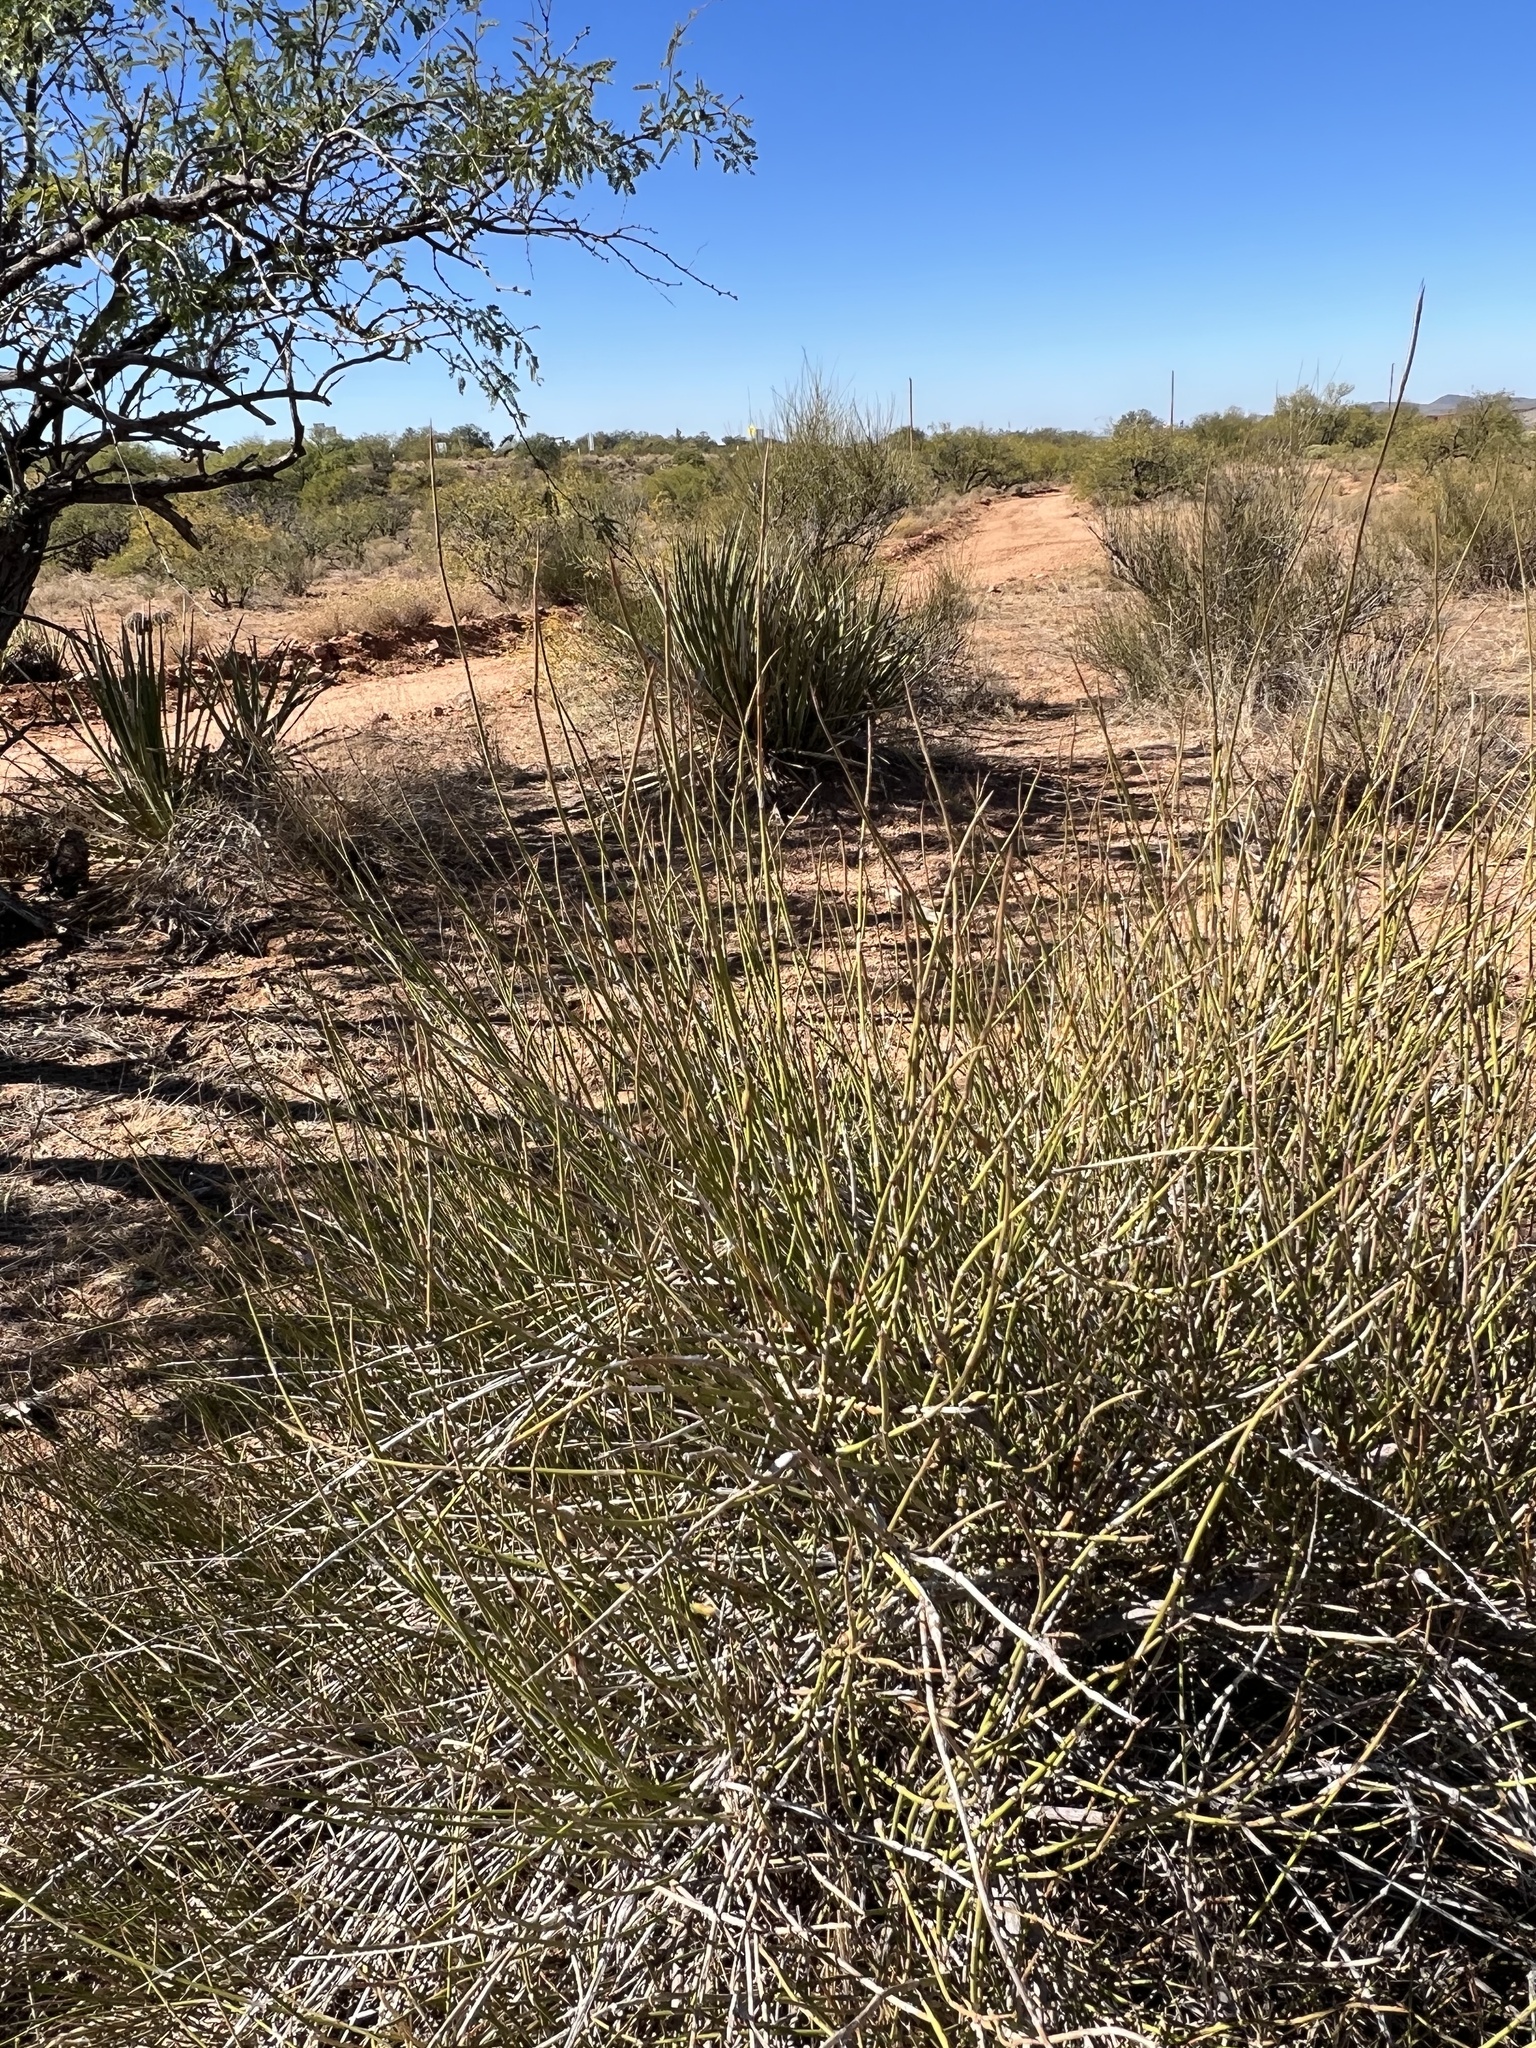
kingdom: Plantae
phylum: Tracheophyta
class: Gnetopsida
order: Ephedrales
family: Ephedraceae
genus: Ephedra
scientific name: Ephedra trifurca
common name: Mexican-tea
